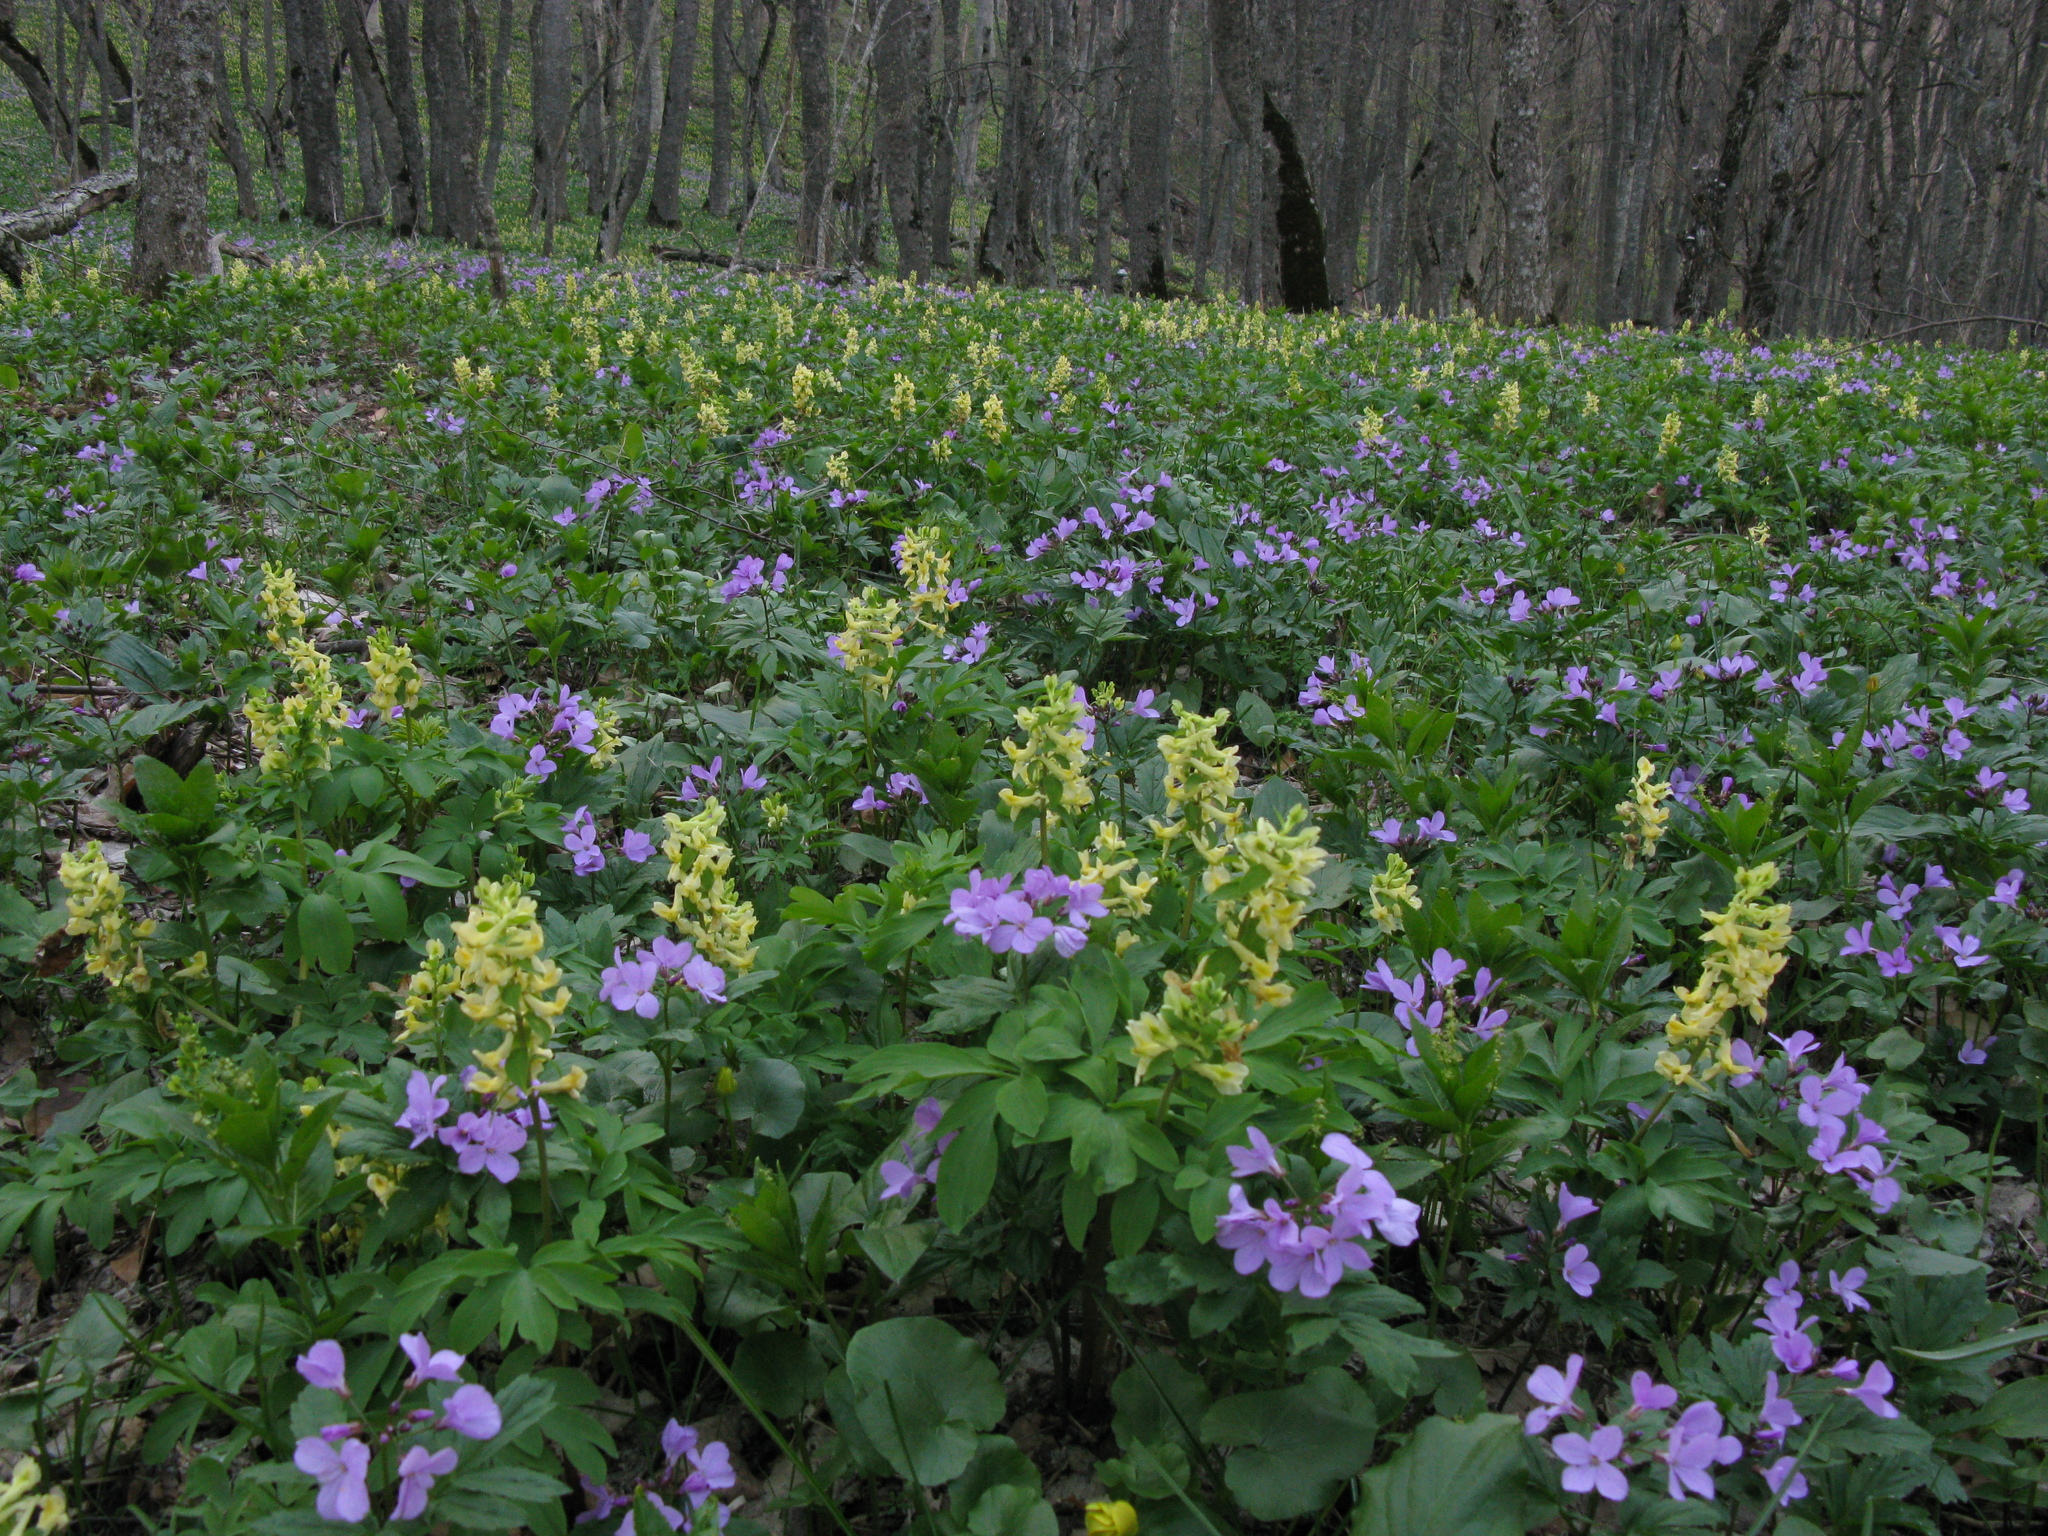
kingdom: Plantae
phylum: Tracheophyta
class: Magnoliopsida
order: Ranunculales
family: Papaveraceae
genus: Corydalis
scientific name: Corydalis cava
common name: Hollowroot
